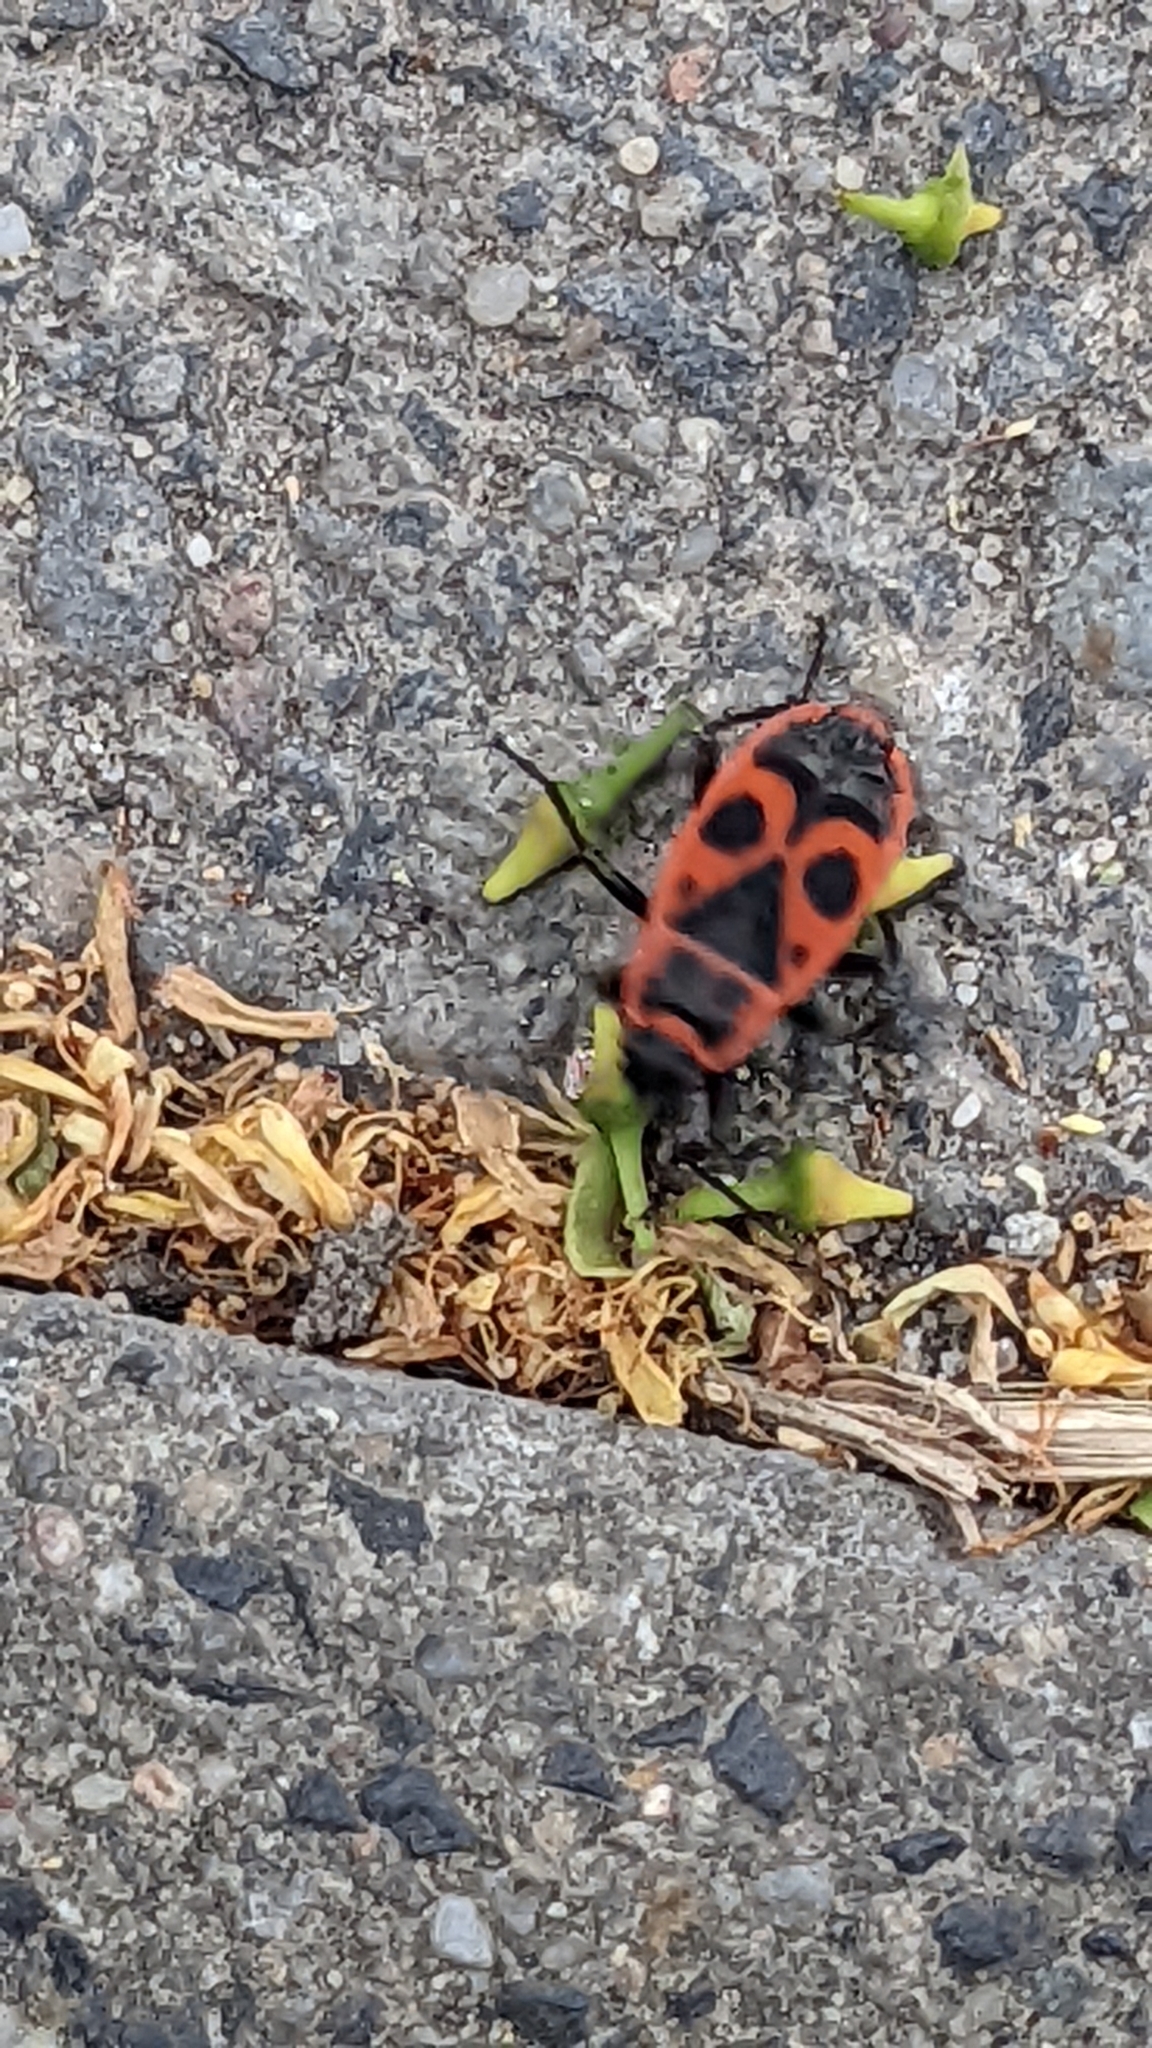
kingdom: Animalia
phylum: Arthropoda
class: Insecta
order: Hemiptera
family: Pyrrhocoridae
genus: Pyrrhocoris
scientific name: Pyrrhocoris apterus
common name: Firebug
